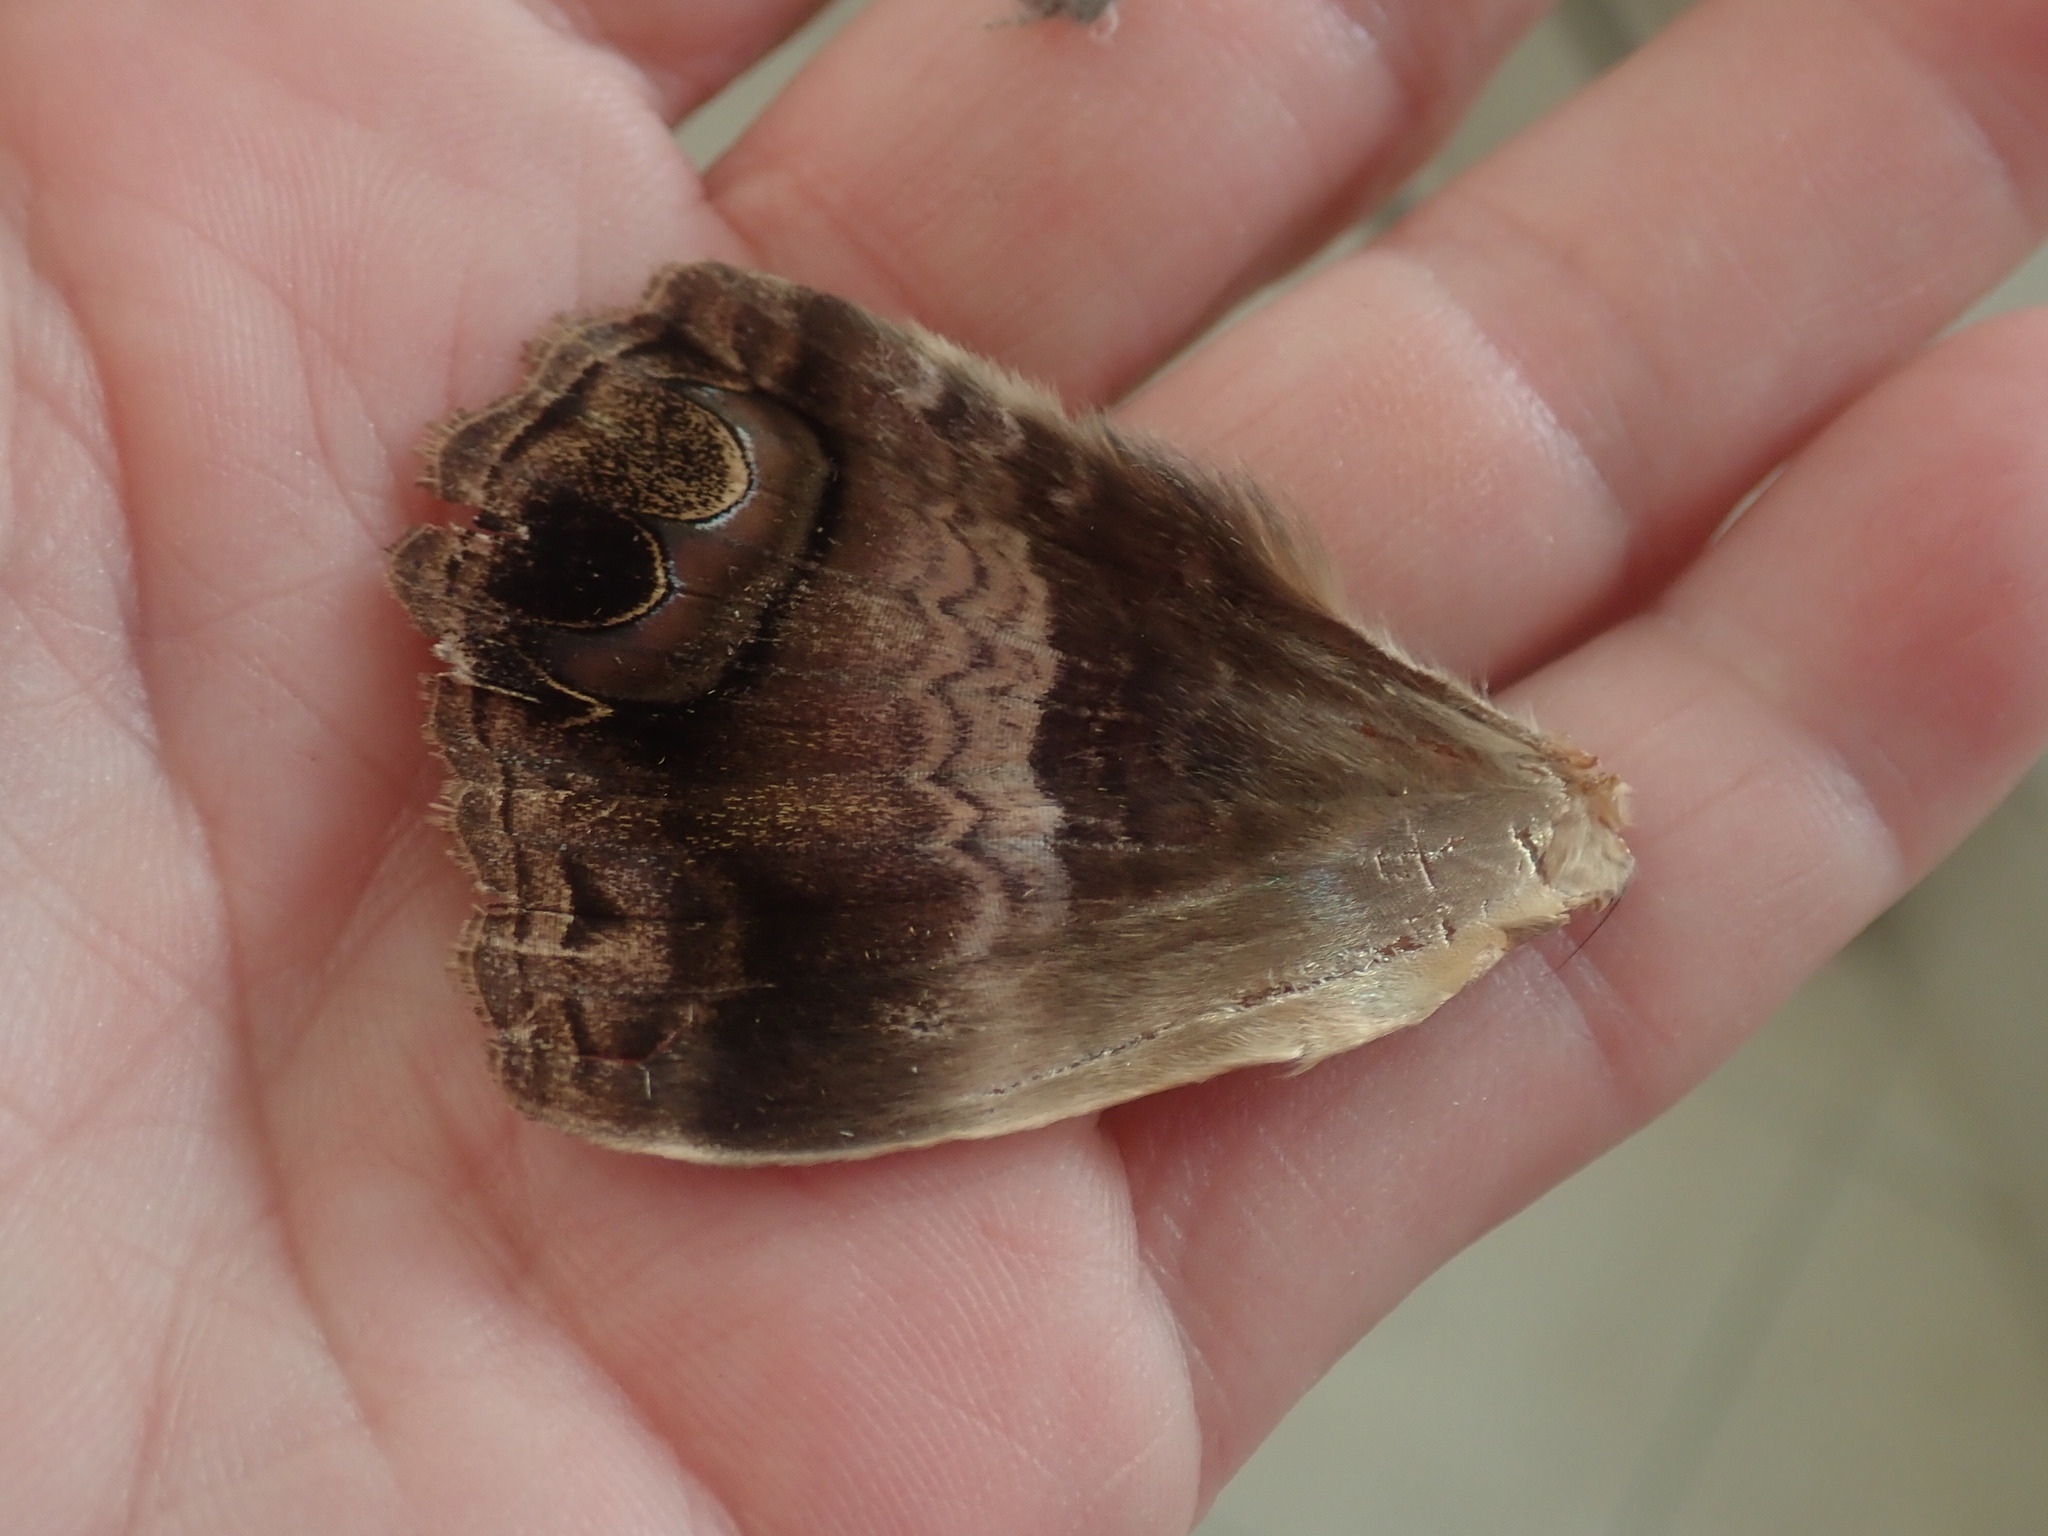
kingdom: Animalia
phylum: Arthropoda
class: Insecta
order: Lepidoptera
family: Erebidae
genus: Ascalapha
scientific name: Ascalapha odorata
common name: Black witch
